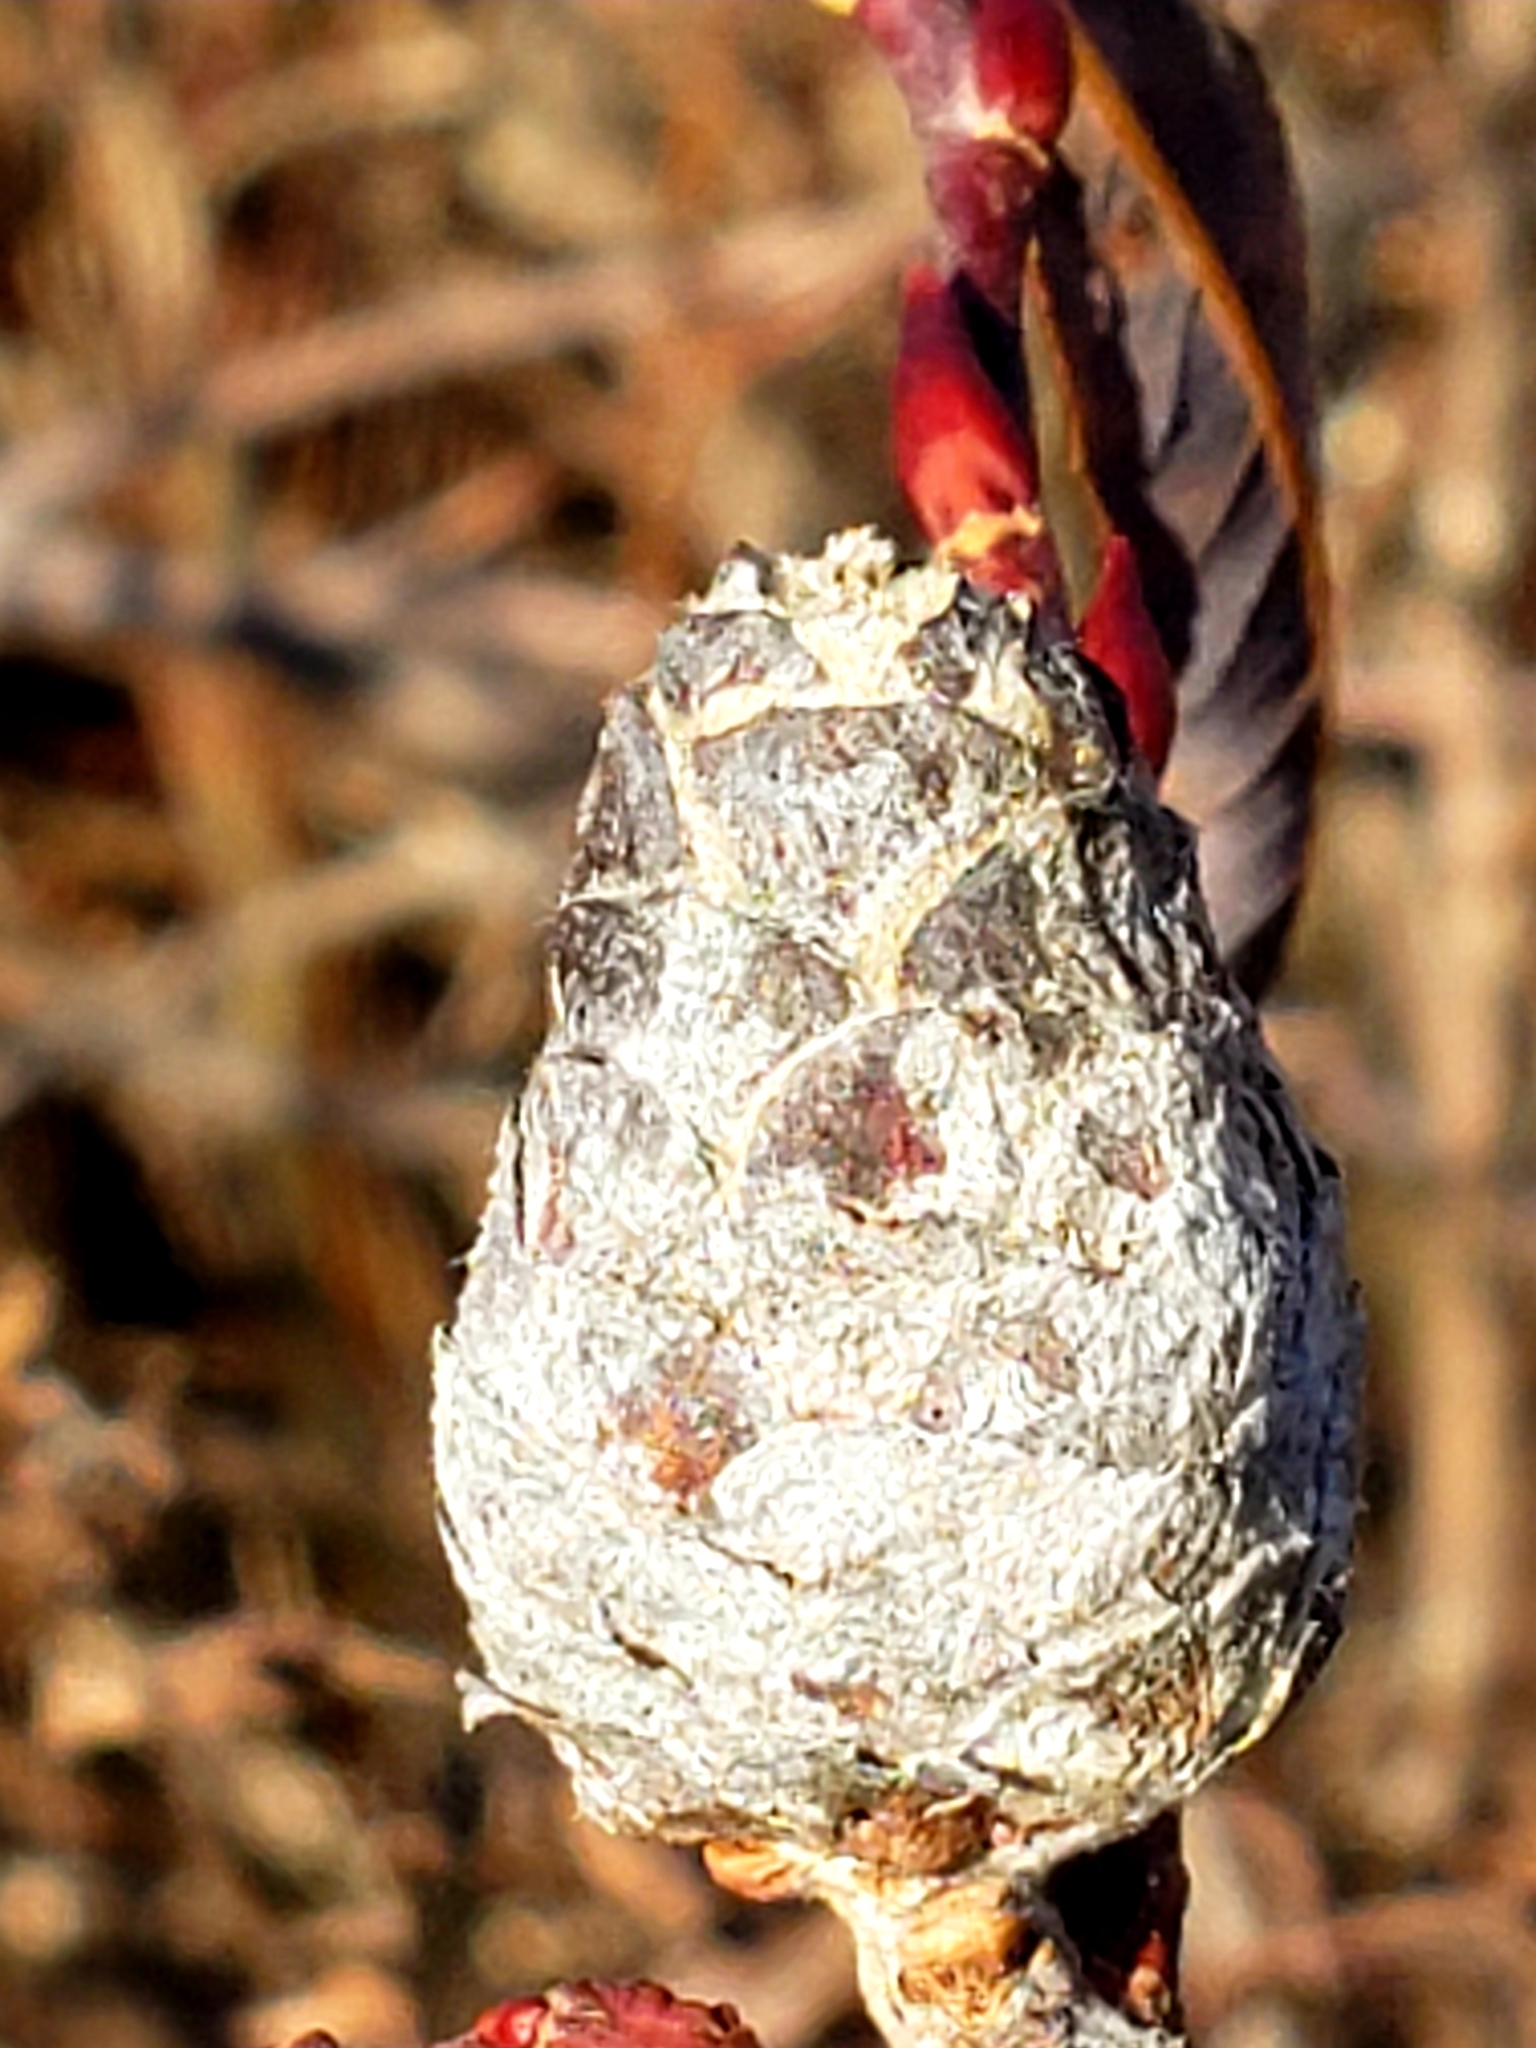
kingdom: Animalia
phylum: Arthropoda
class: Insecta
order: Diptera
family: Cecidomyiidae
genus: Rabdophaga
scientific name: Rabdophaga strobiloides
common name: Willow pinecone gall midge
